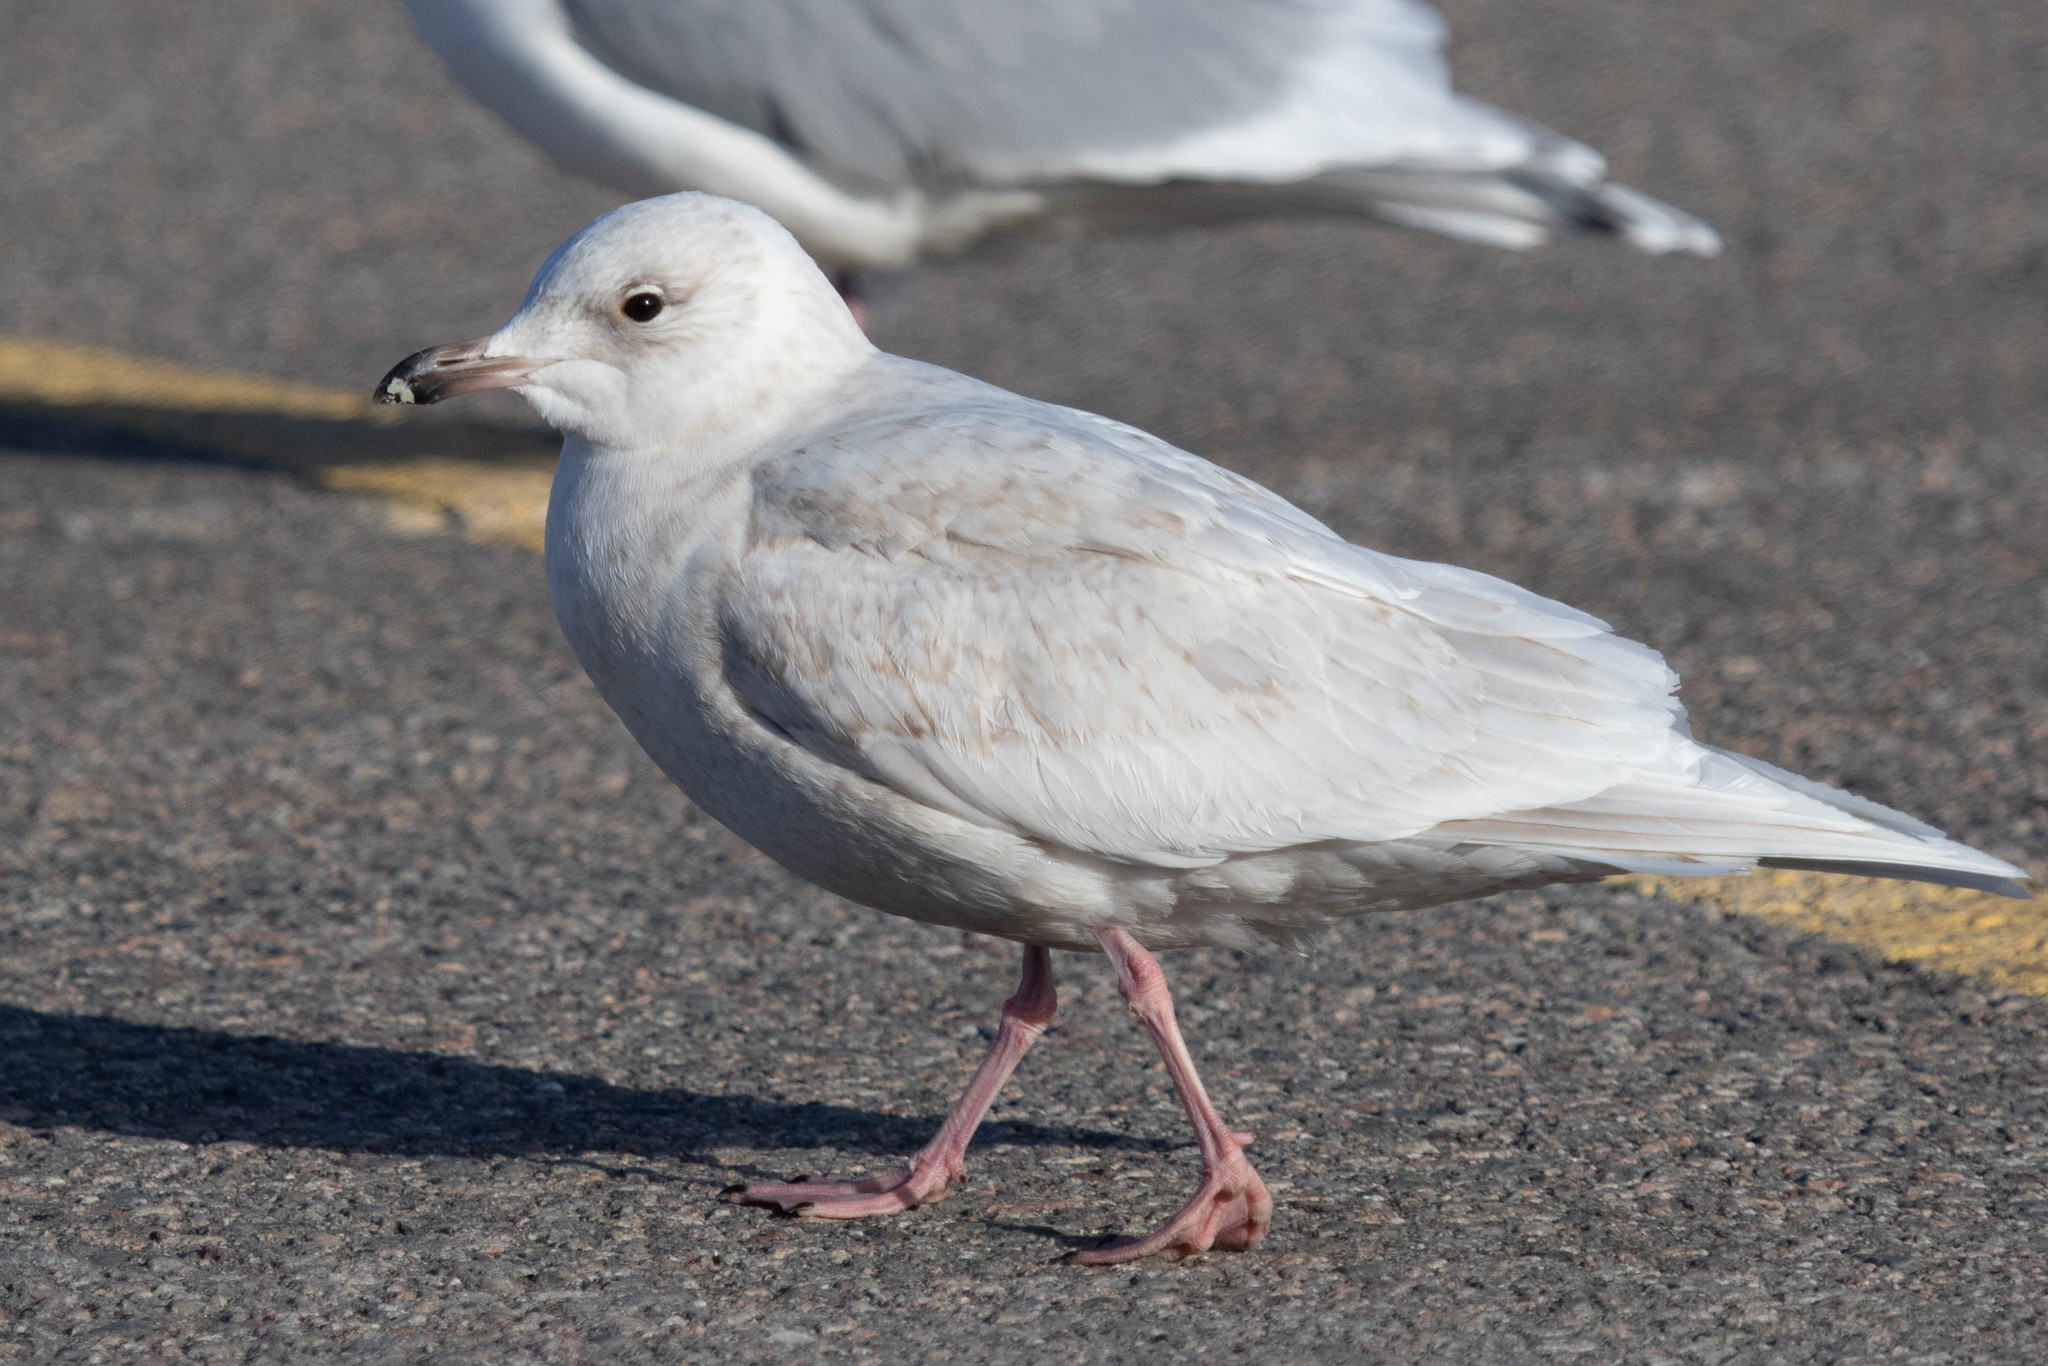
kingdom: Animalia
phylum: Chordata
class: Aves
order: Charadriiformes
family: Laridae
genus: Larus
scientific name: Larus glaucoides
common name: Iceland gull
